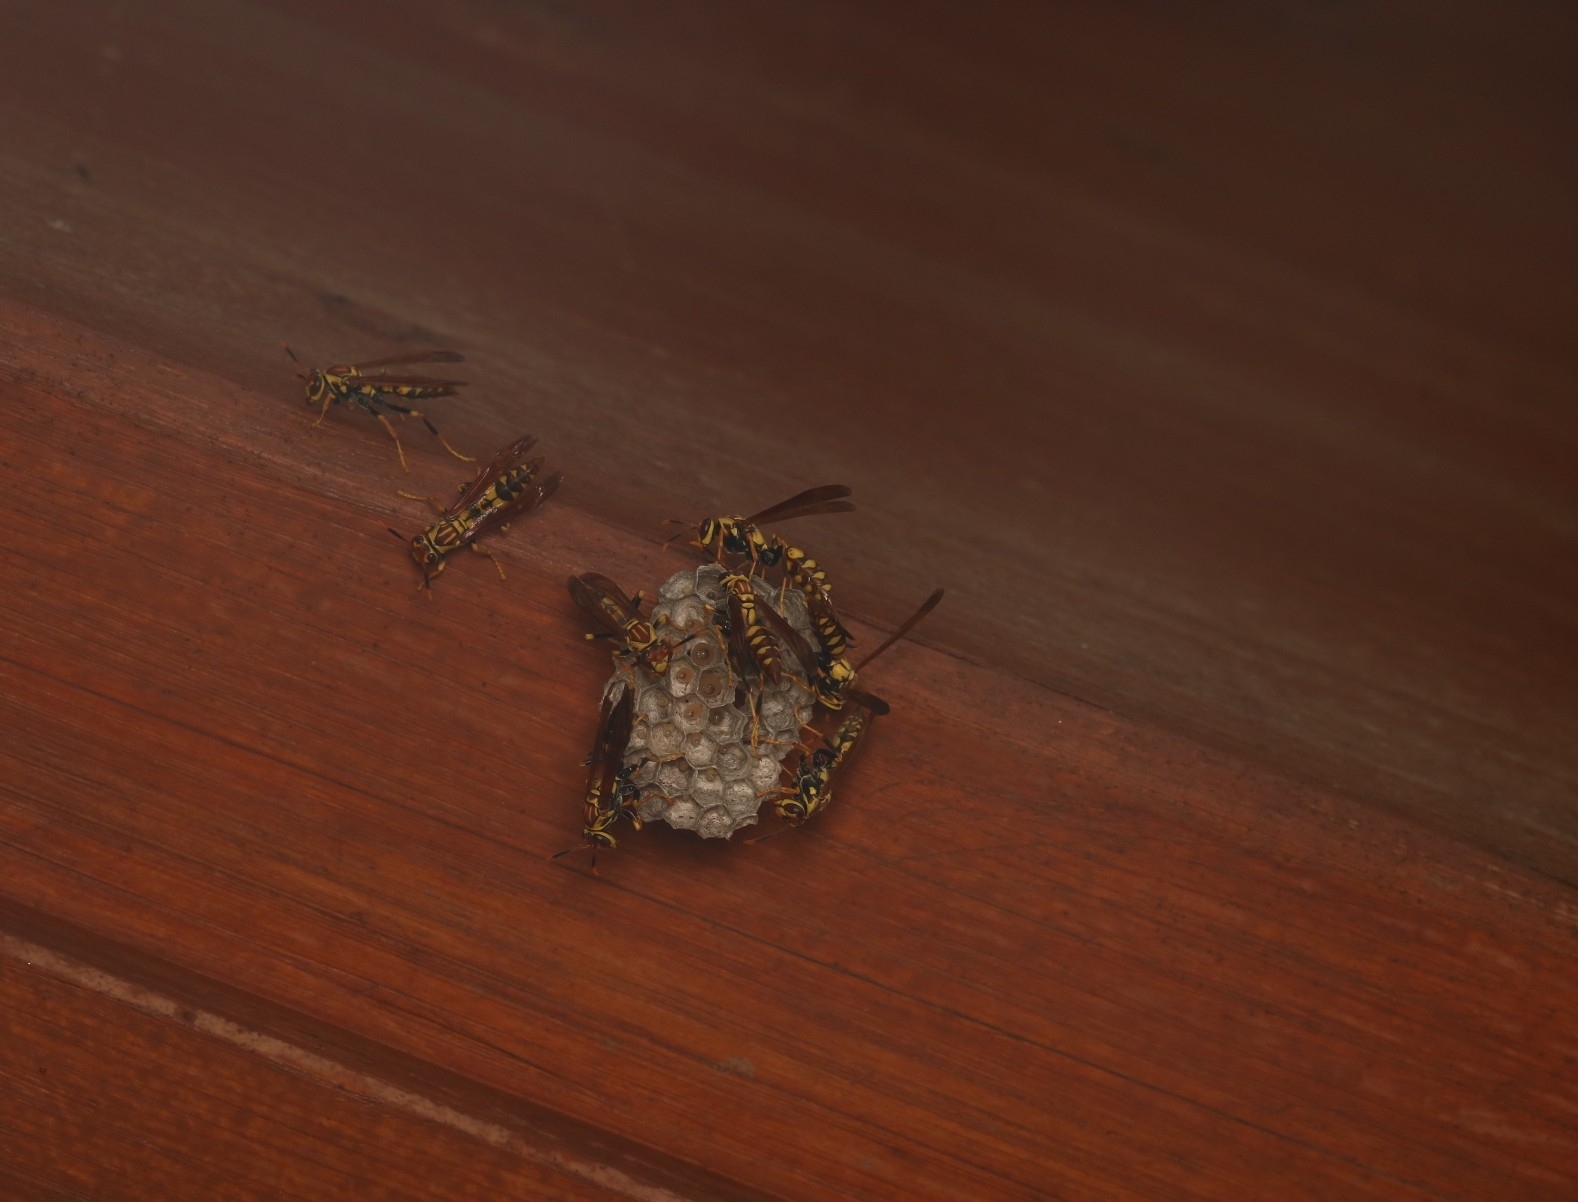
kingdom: Animalia
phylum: Arthropoda
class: Insecta
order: Hymenoptera
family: Eumenidae
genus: Polistes
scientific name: Polistes myersi
